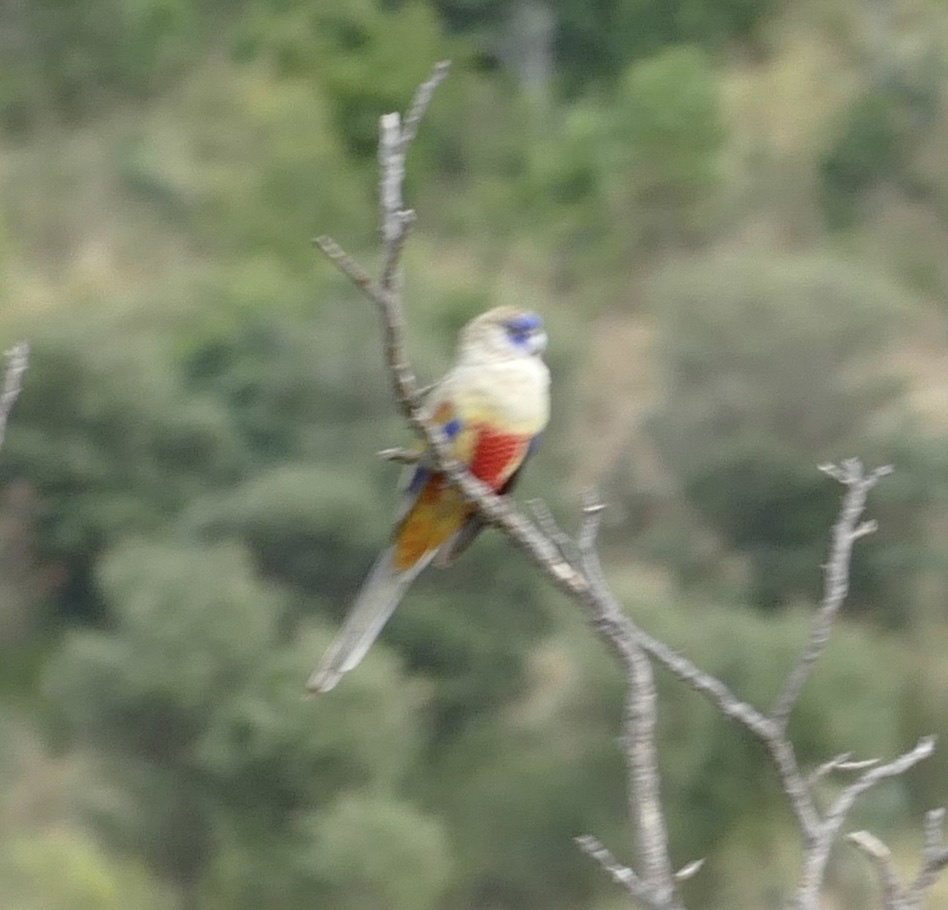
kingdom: Animalia
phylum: Chordata
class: Aves
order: Psittaciformes
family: Psittacidae
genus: Northiella
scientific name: Northiella haematogaster
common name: Bluebonnet
